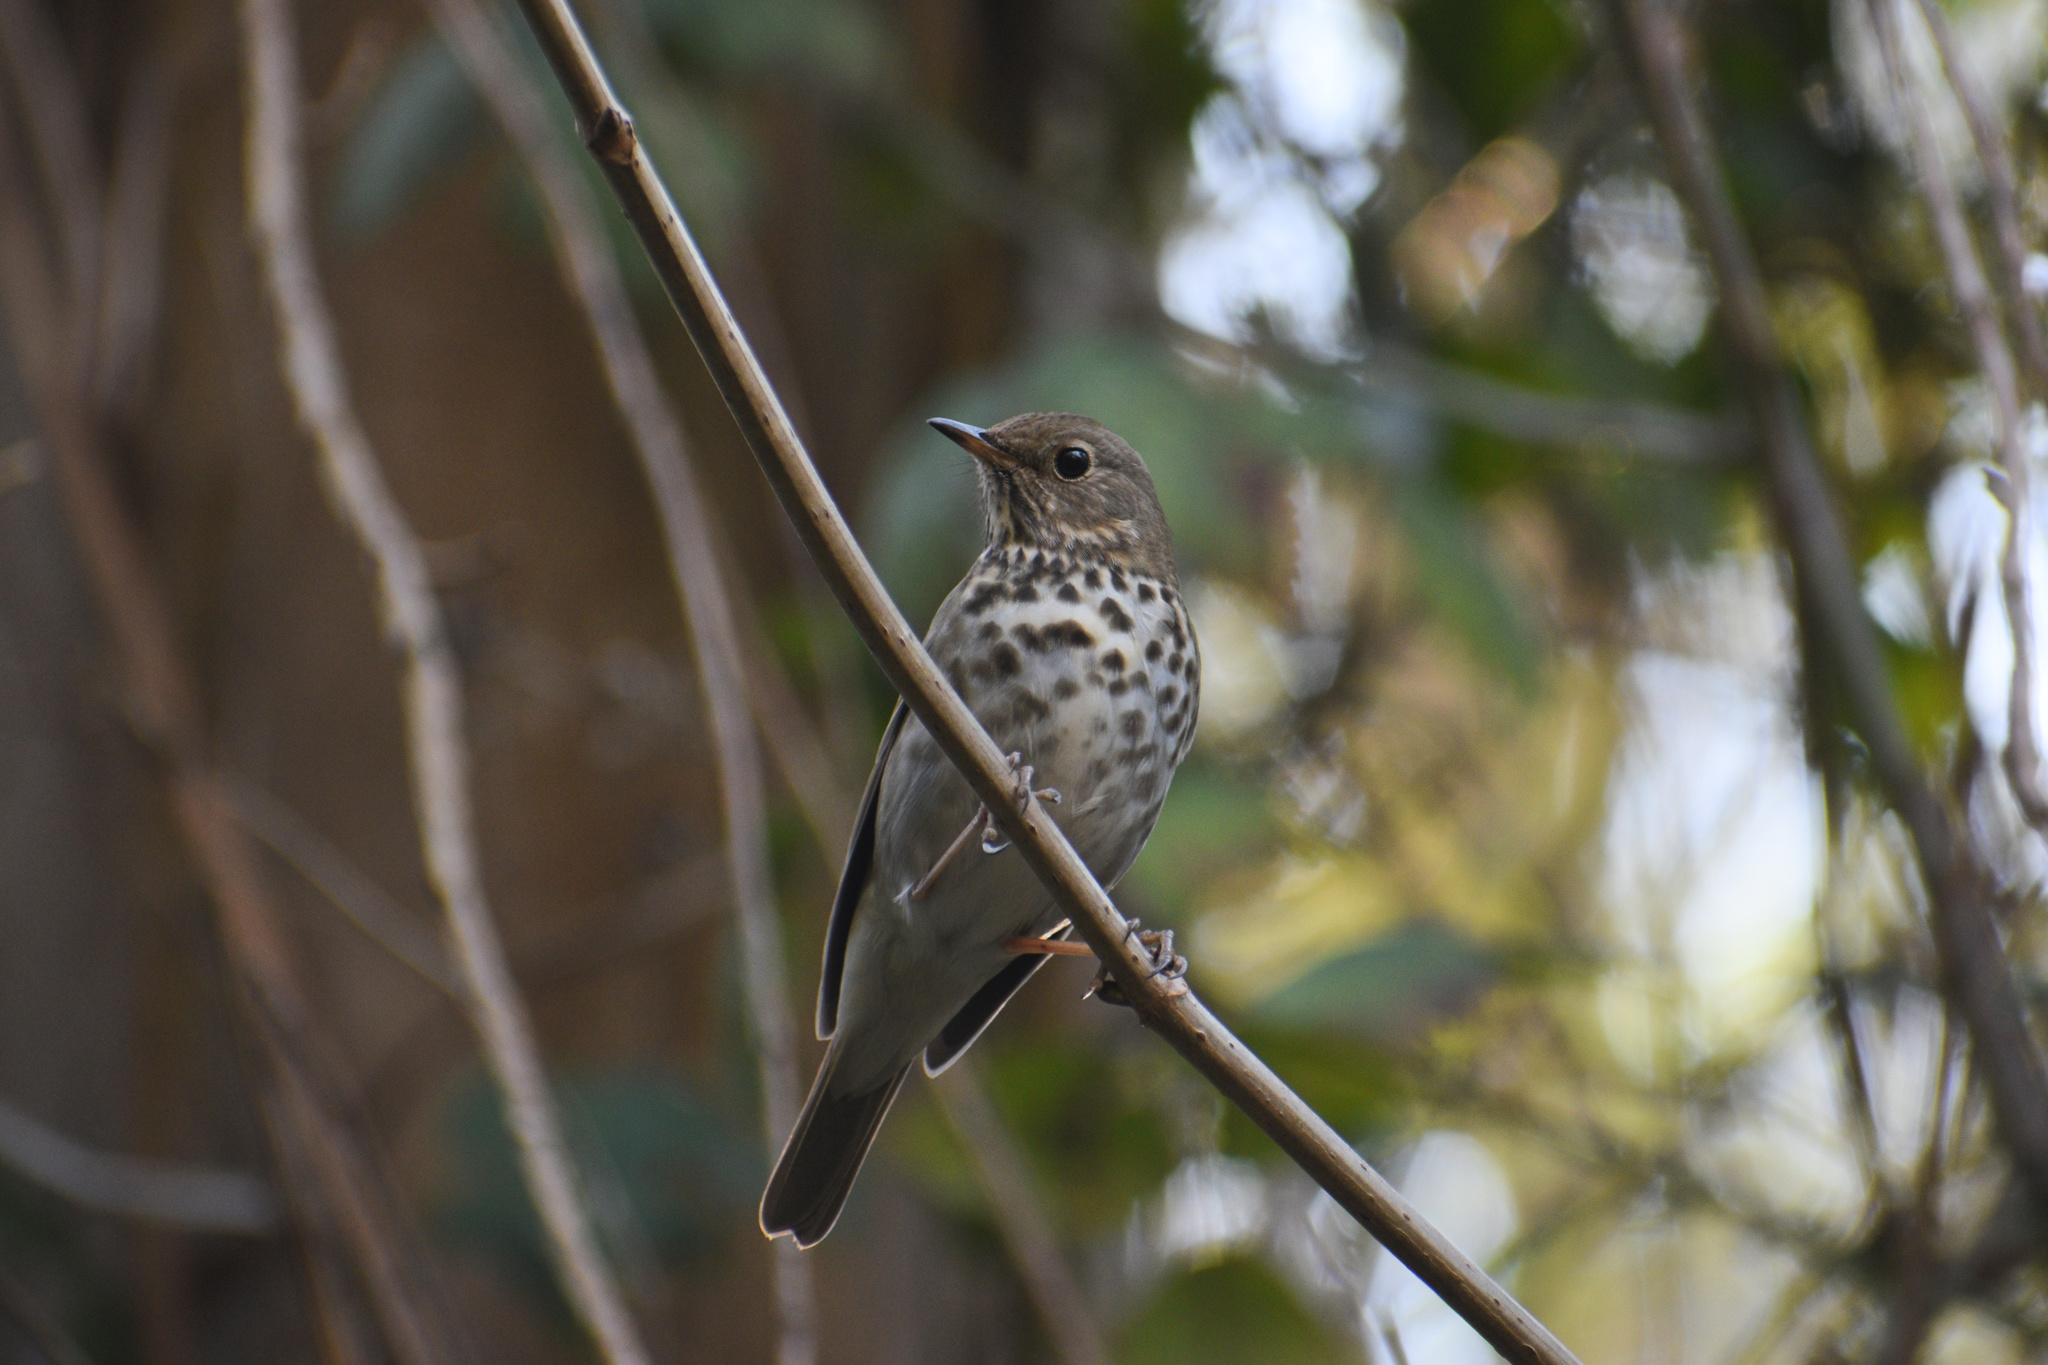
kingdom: Animalia
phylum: Chordata
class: Aves
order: Passeriformes
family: Turdidae
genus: Catharus
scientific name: Catharus guttatus
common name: Hermit thrush
